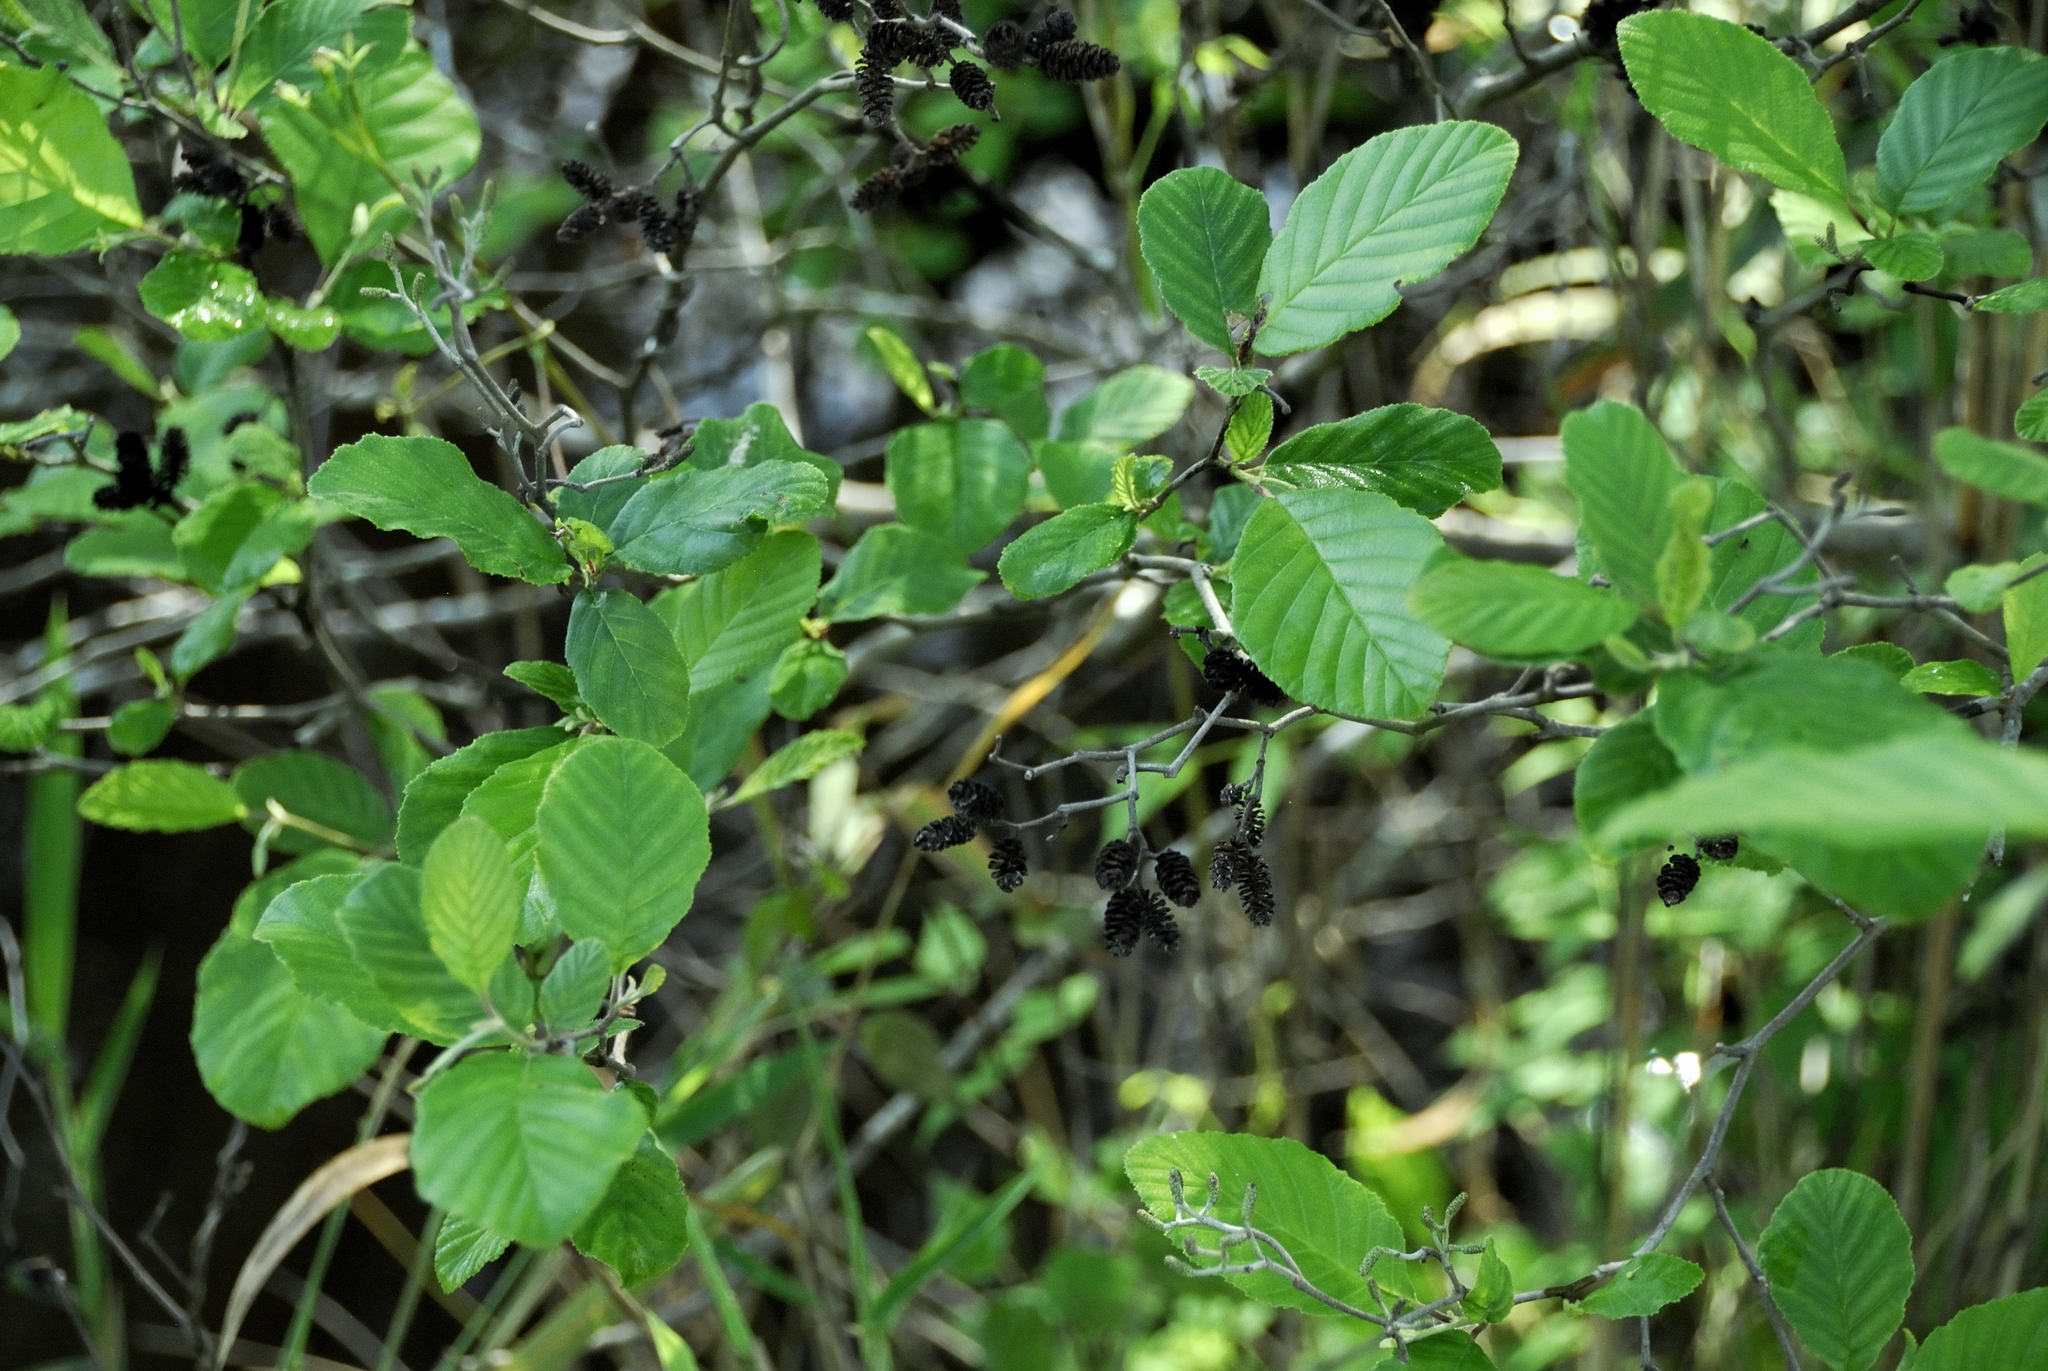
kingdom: Plantae
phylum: Tracheophyta
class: Magnoliopsida
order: Fagales
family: Betulaceae
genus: Alnus
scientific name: Alnus serrulata
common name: Hazel alder
